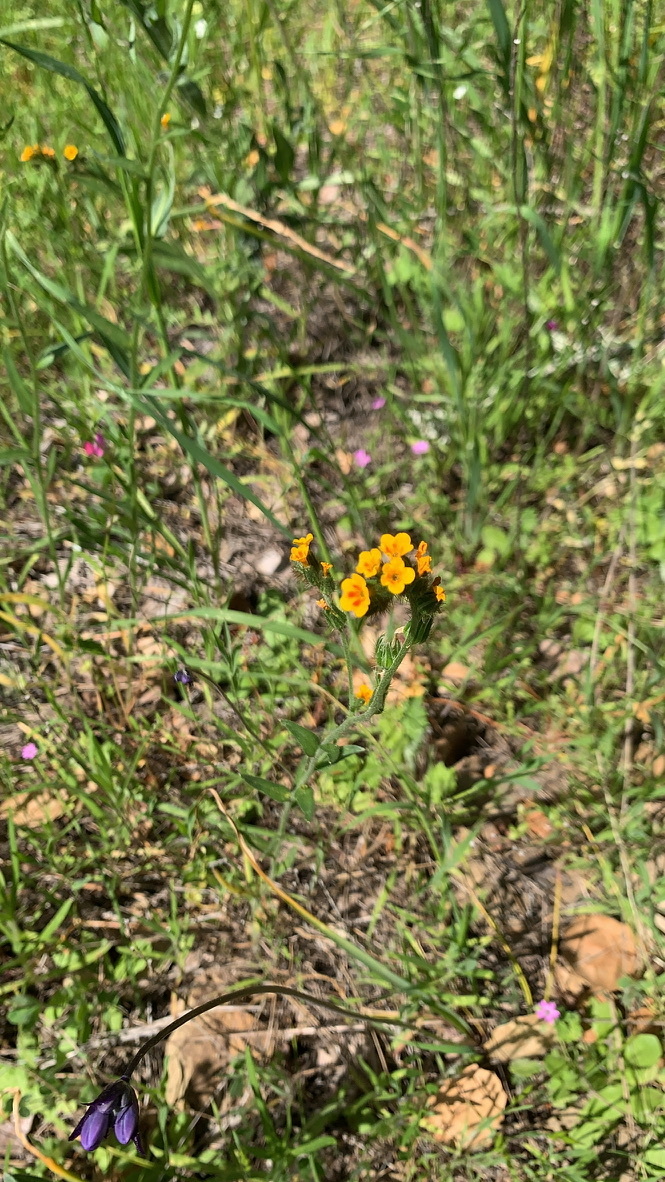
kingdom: Plantae
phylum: Tracheophyta
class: Magnoliopsida
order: Boraginales
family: Boraginaceae
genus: Amsinckia
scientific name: Amsinckia menziesii
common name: Menzies' fiddleneck
